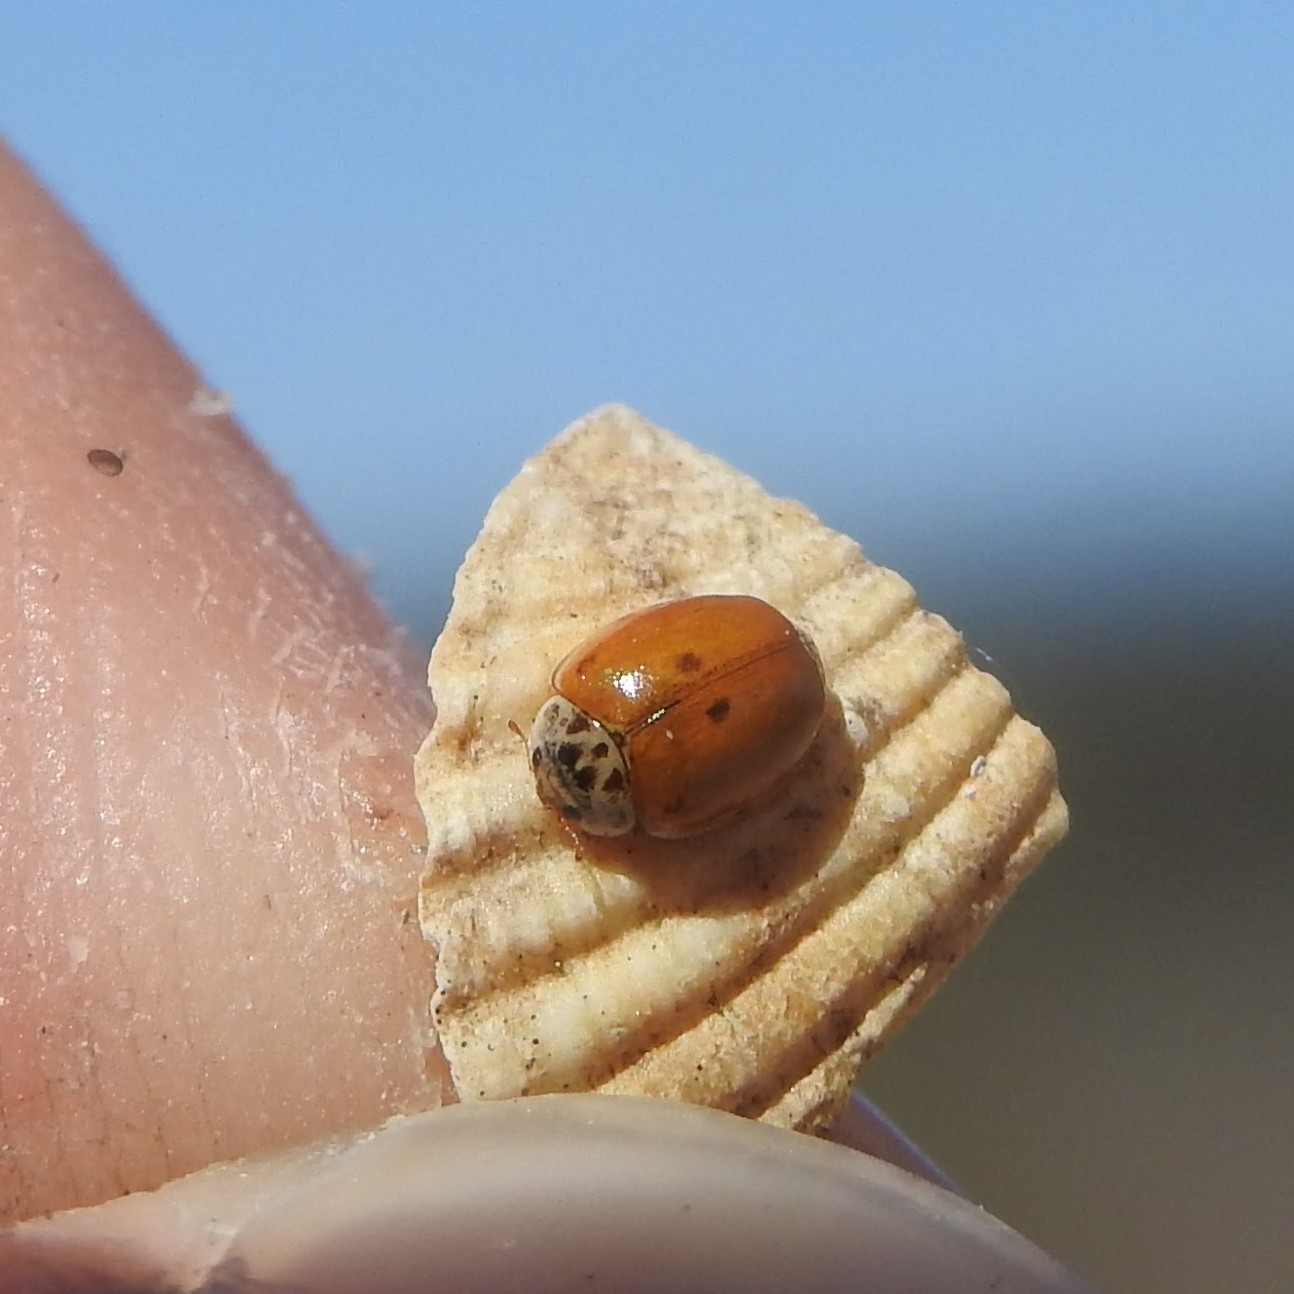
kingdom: Animalia
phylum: Arthropoda
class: Insecta
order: Coleoptera
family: Coccinellidae
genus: Adalia
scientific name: Adalia decempunctata
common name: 10-spot ladybird
